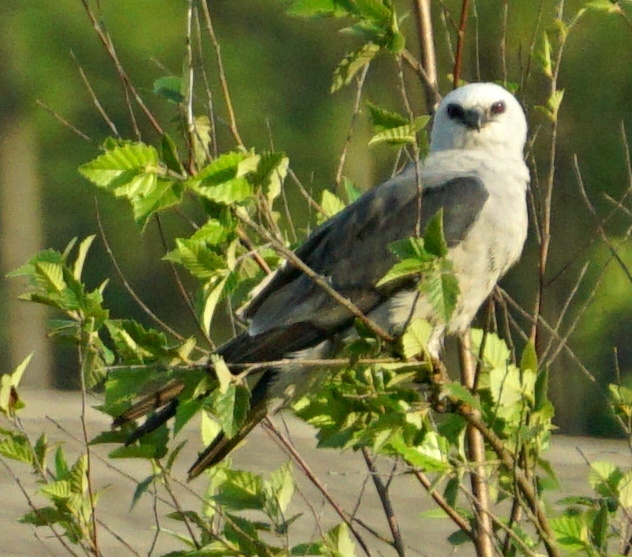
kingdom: Animalia
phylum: Chordata
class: Aves
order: Accipitriformes
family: Accipitridae
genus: Ictinia
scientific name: Ictinia mississippiensis
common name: Mississippi kite
